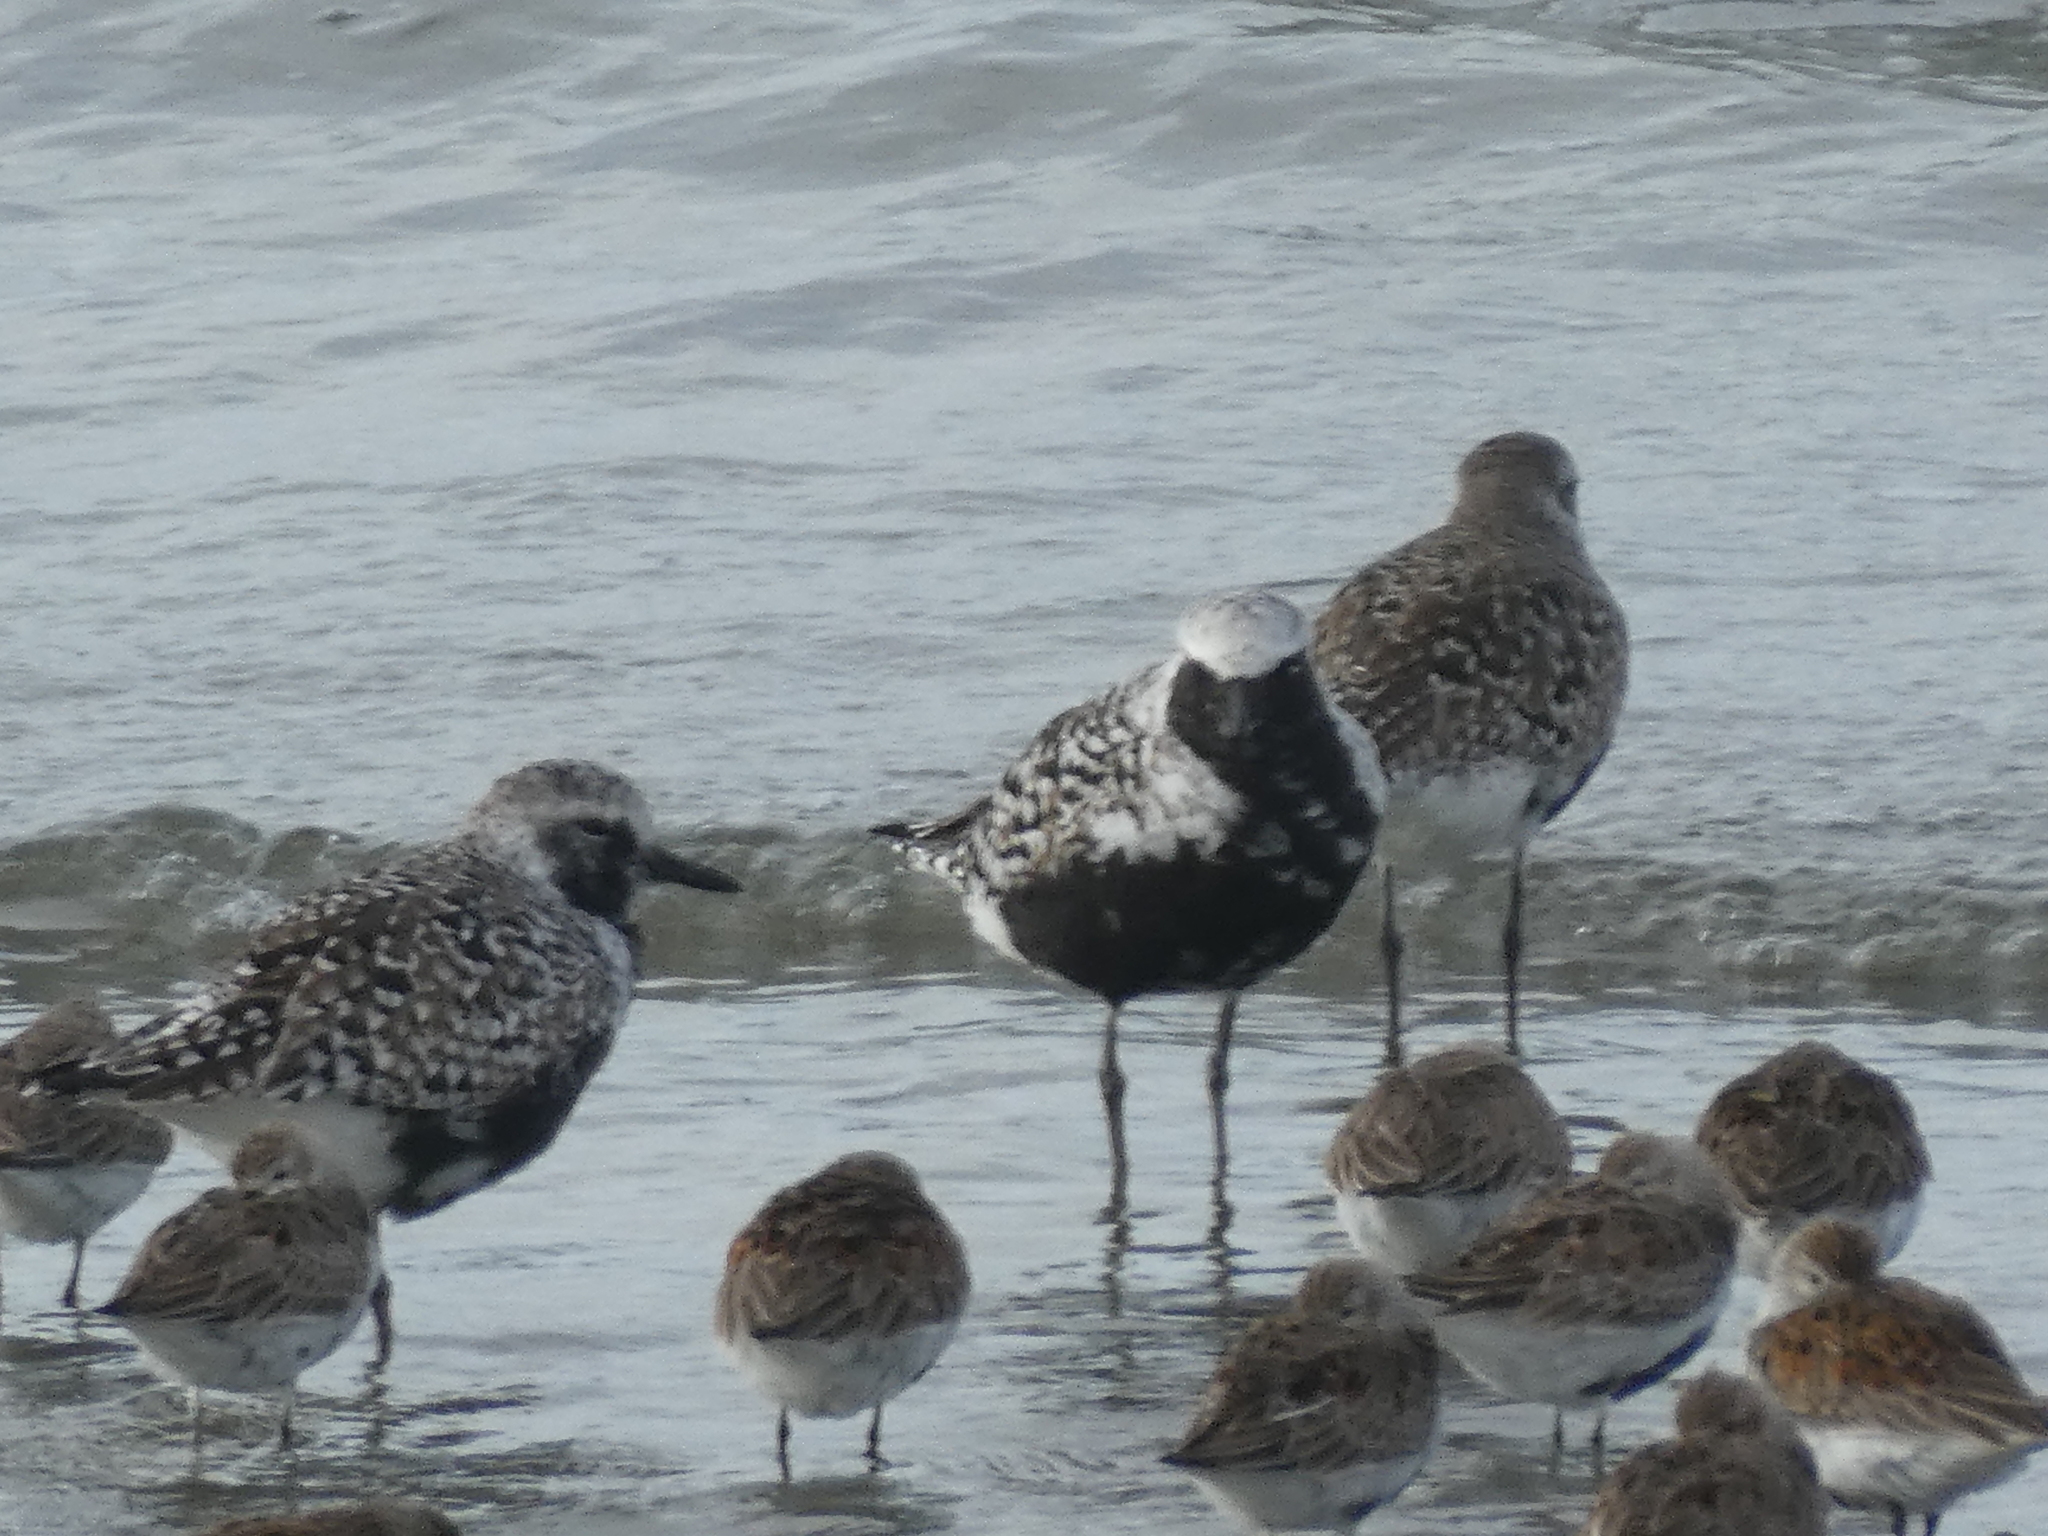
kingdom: Animalia
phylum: Chordata
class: Aves
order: Charadriiformes
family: Charadriidae
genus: Pluvialis
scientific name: Pluvialis squatarola
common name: Grey plover
